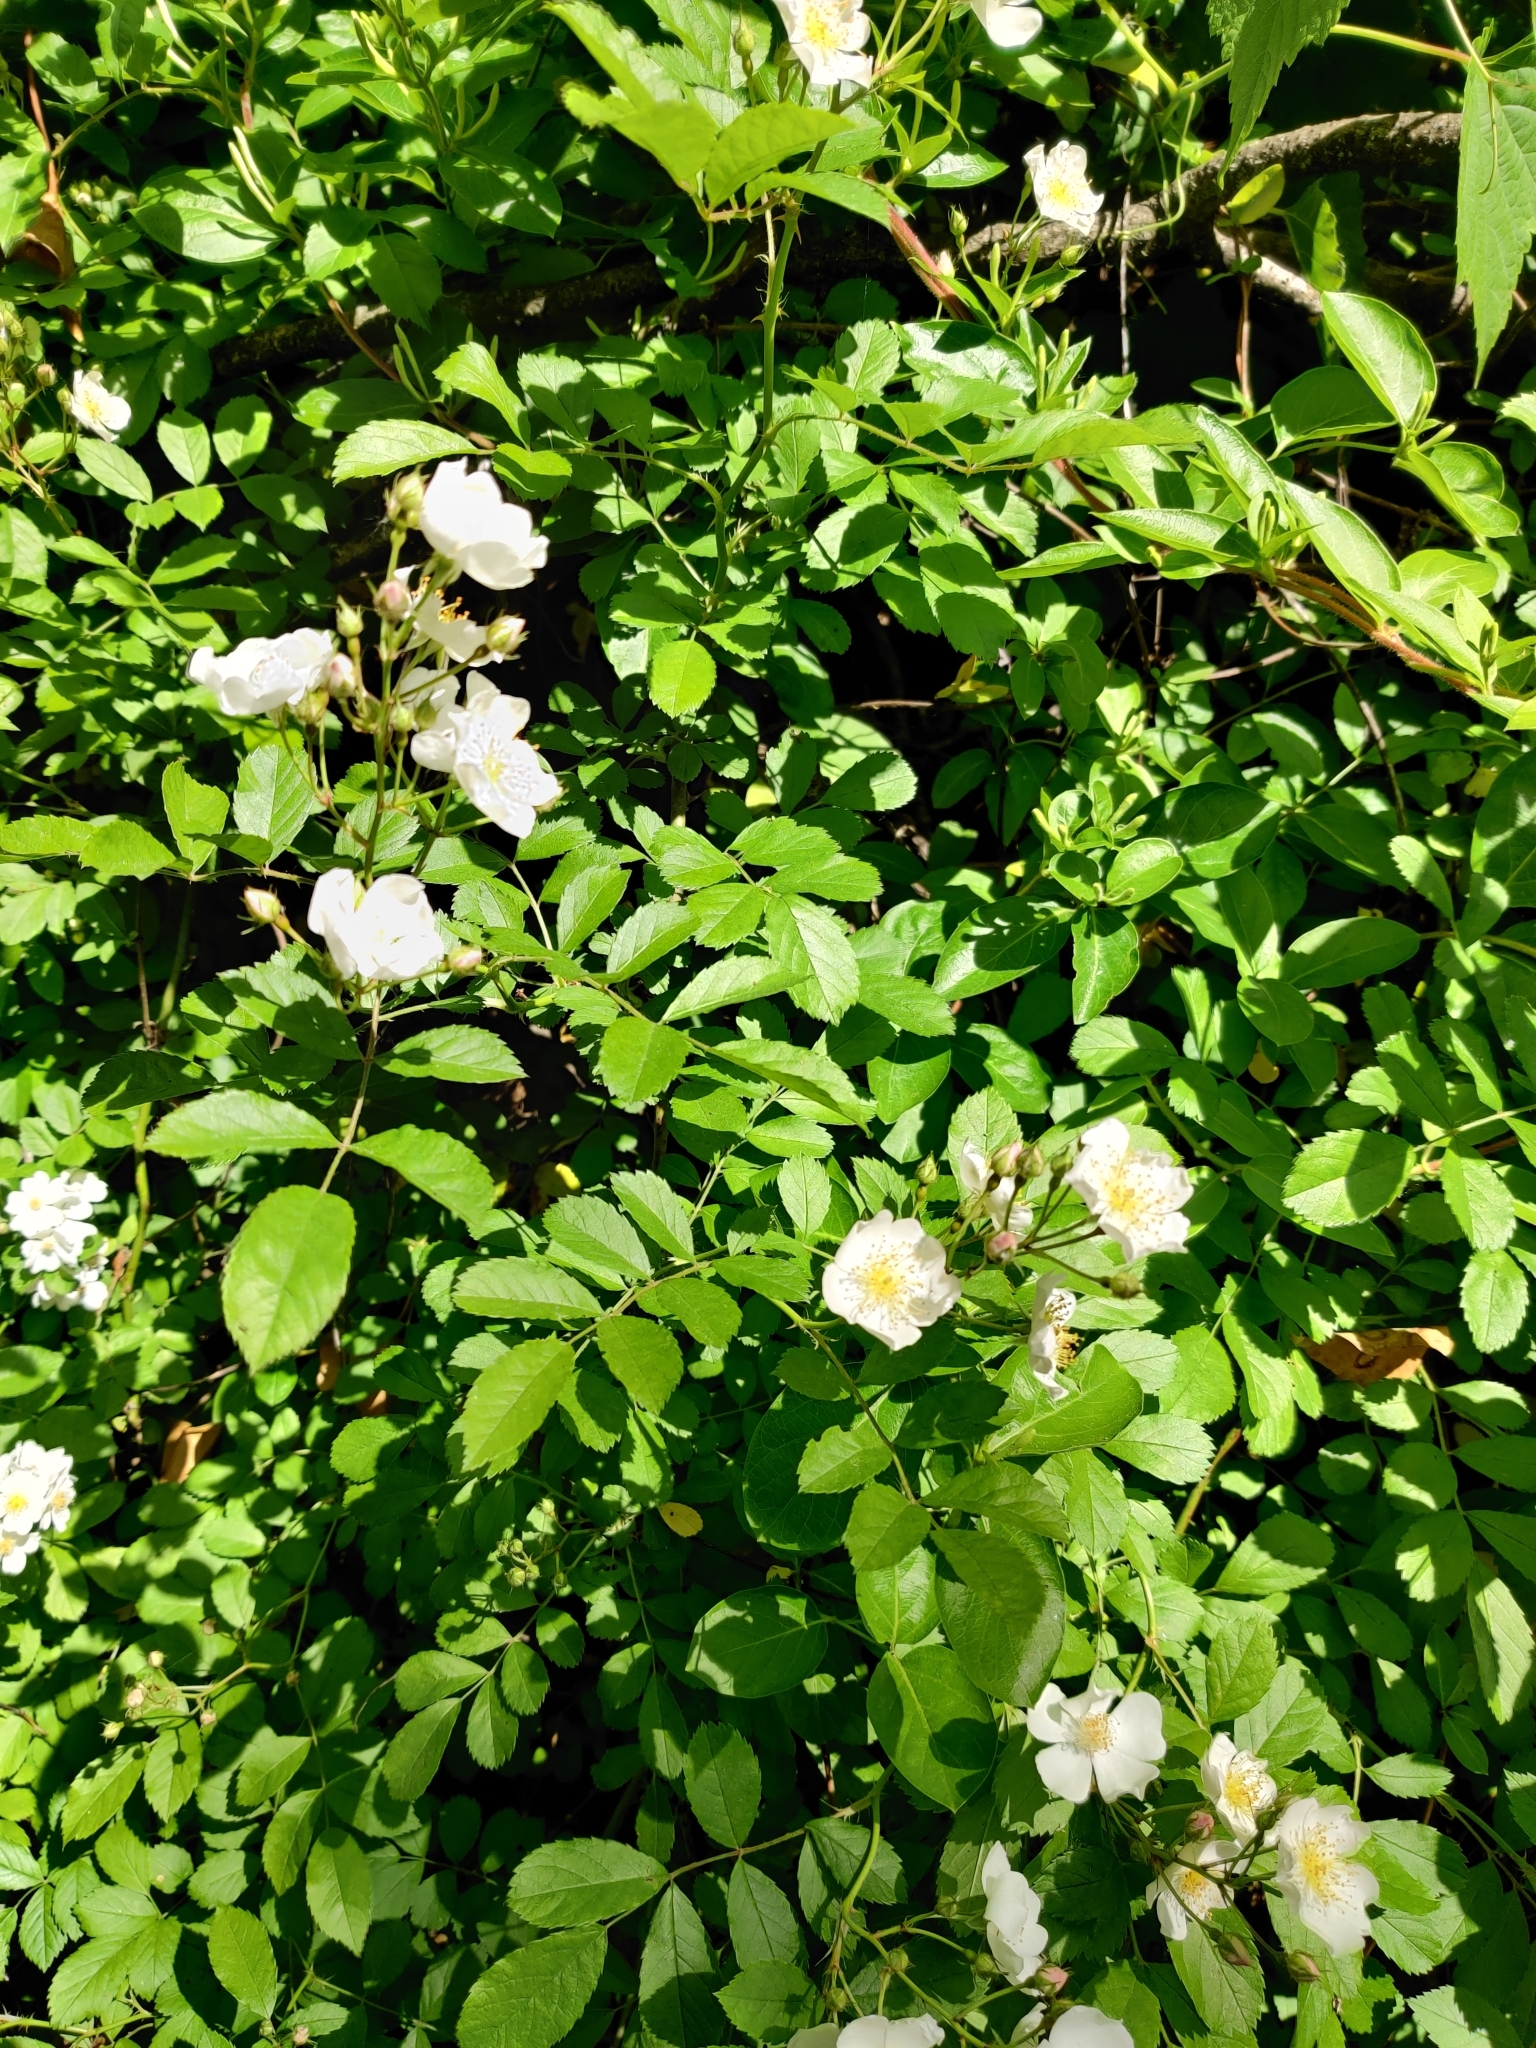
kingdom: Plantae
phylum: Tracheophyta
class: Magnoliopsida
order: Rosales
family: Rosaceae
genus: Rosa
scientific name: Rosa multiflora
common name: Multiflora rose
